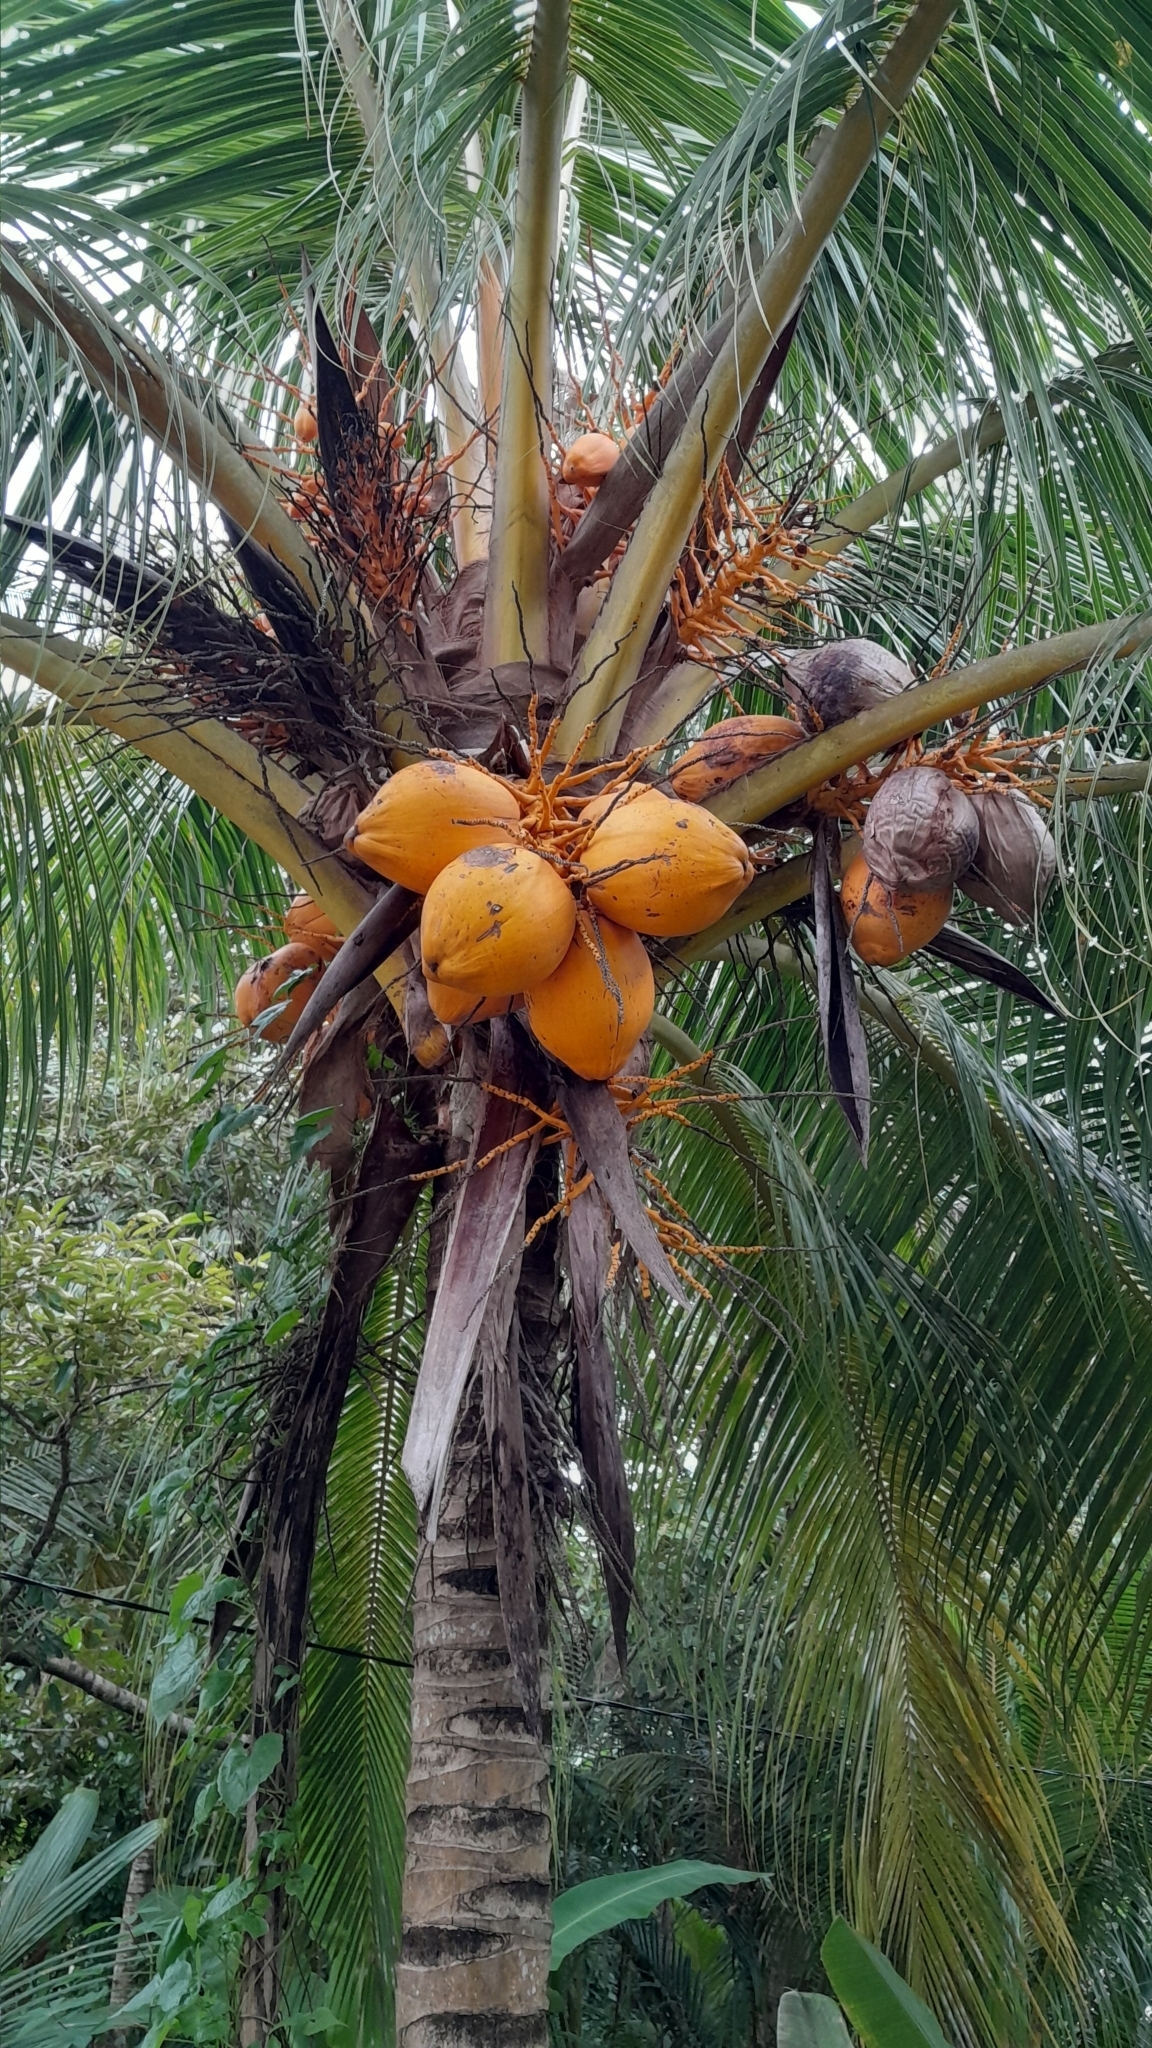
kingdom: Plantae
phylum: Tracheophyta
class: Liliopsida
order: Arecales
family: Arecaceae
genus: Cocos
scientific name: Cocos nucifera
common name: Coconut palm
